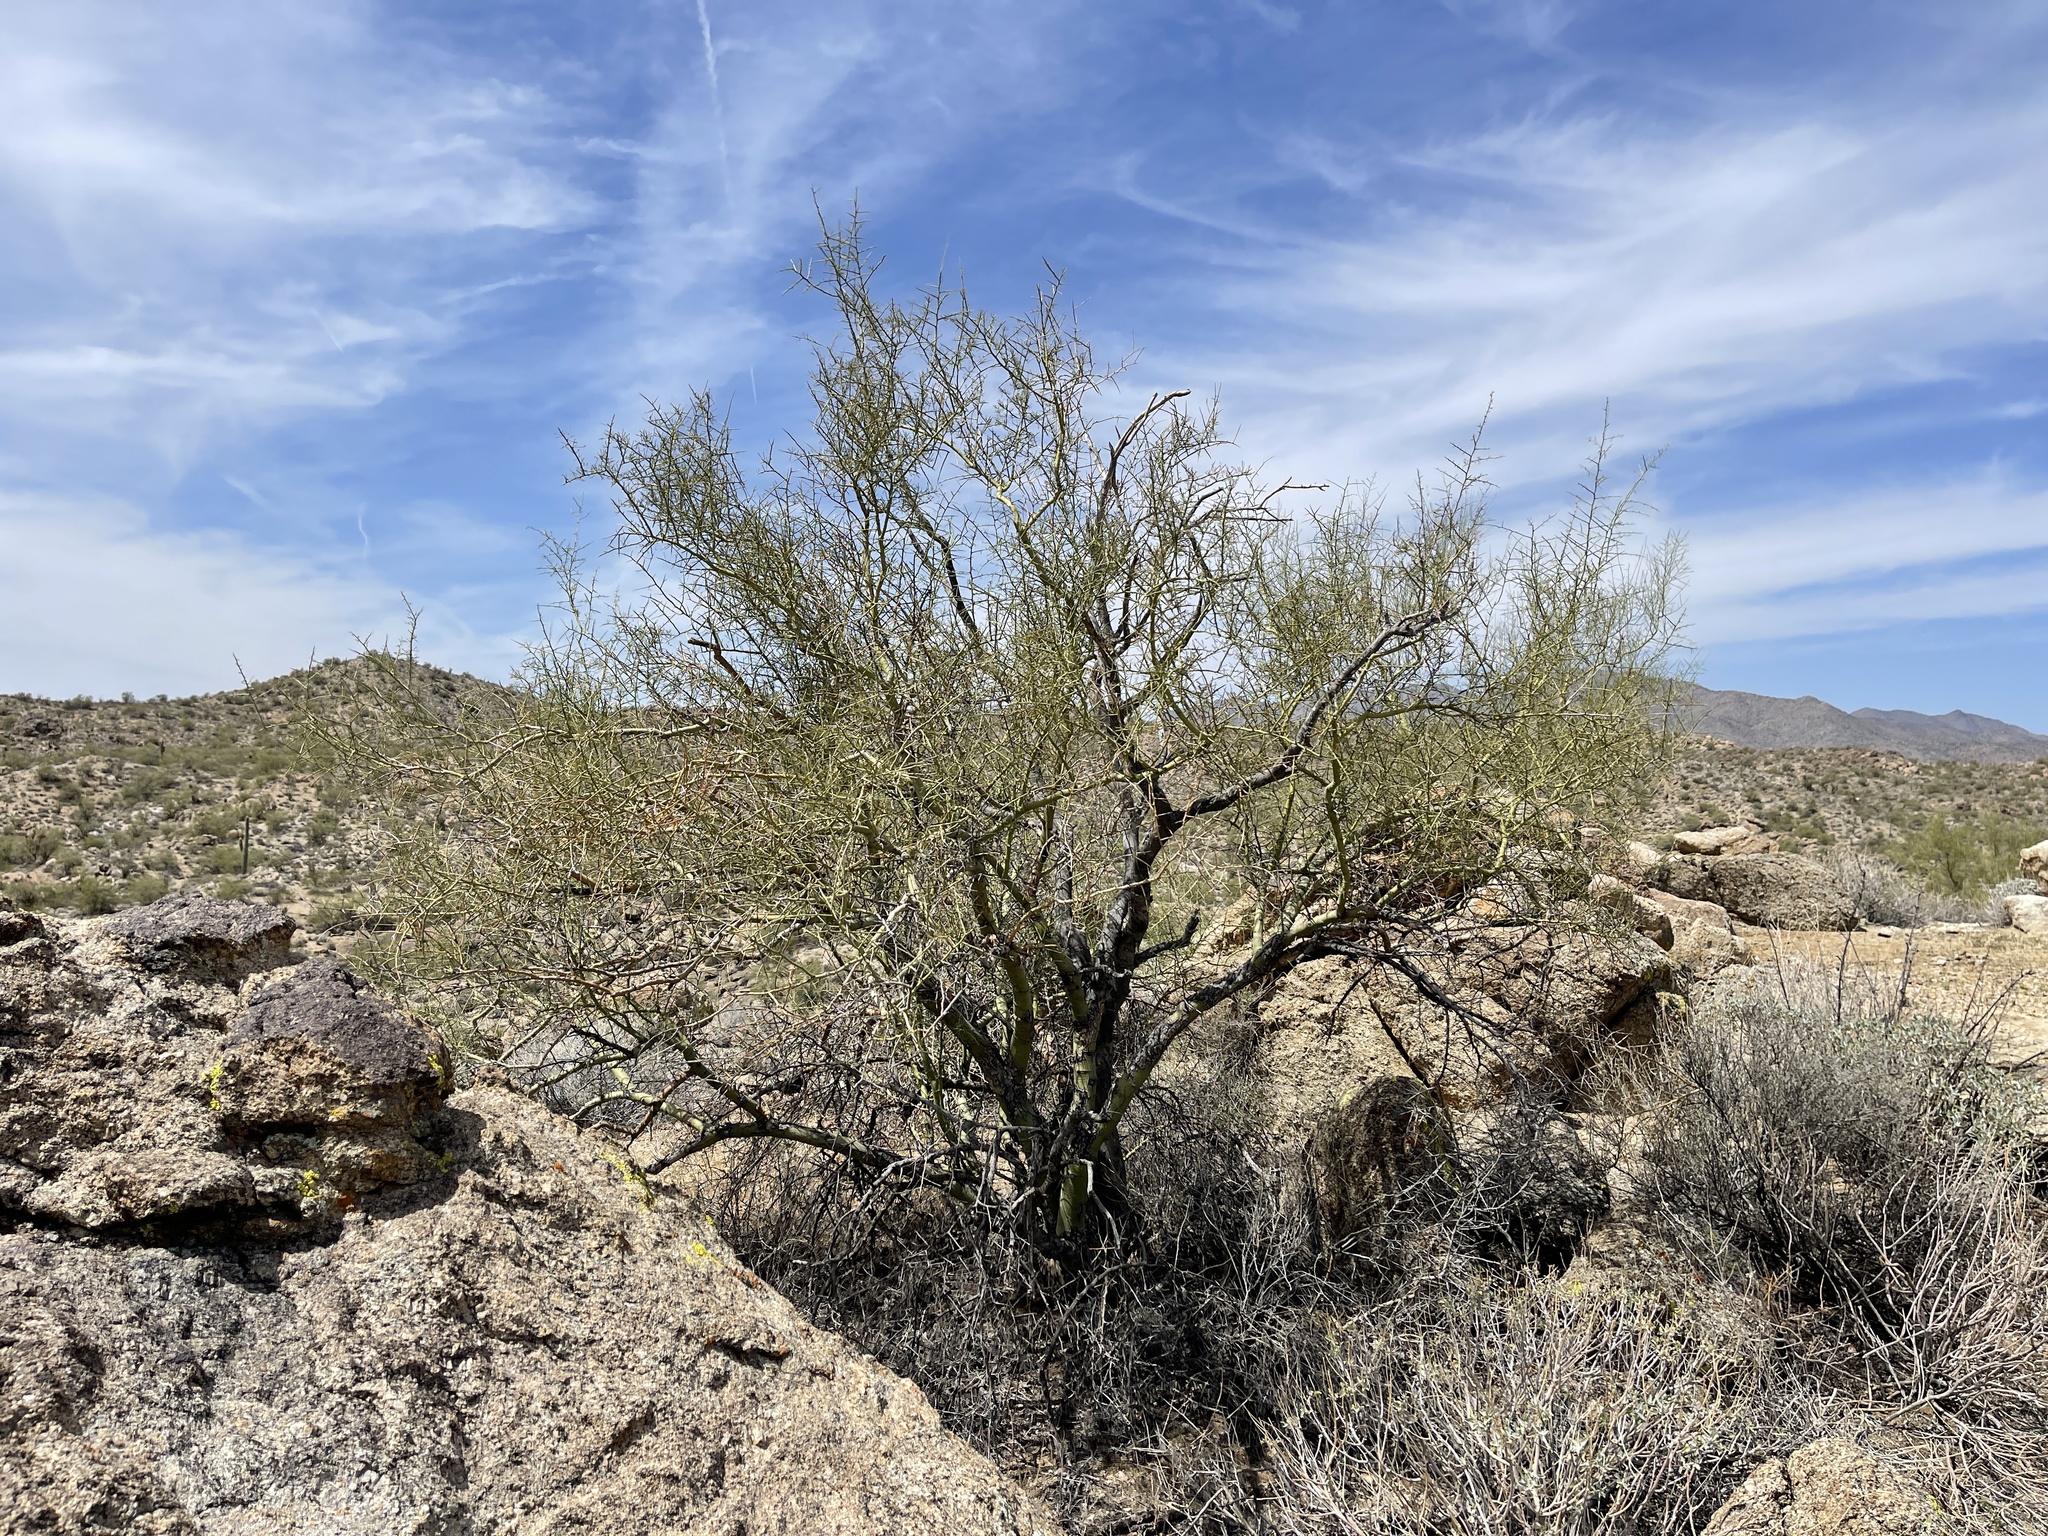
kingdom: Plantae
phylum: Tracheophyta
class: Magnoliopsida
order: Fabales
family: Fabaceae
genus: Parkinsonia
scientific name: Parkinsonia microphylla
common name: Yellow paloverde
